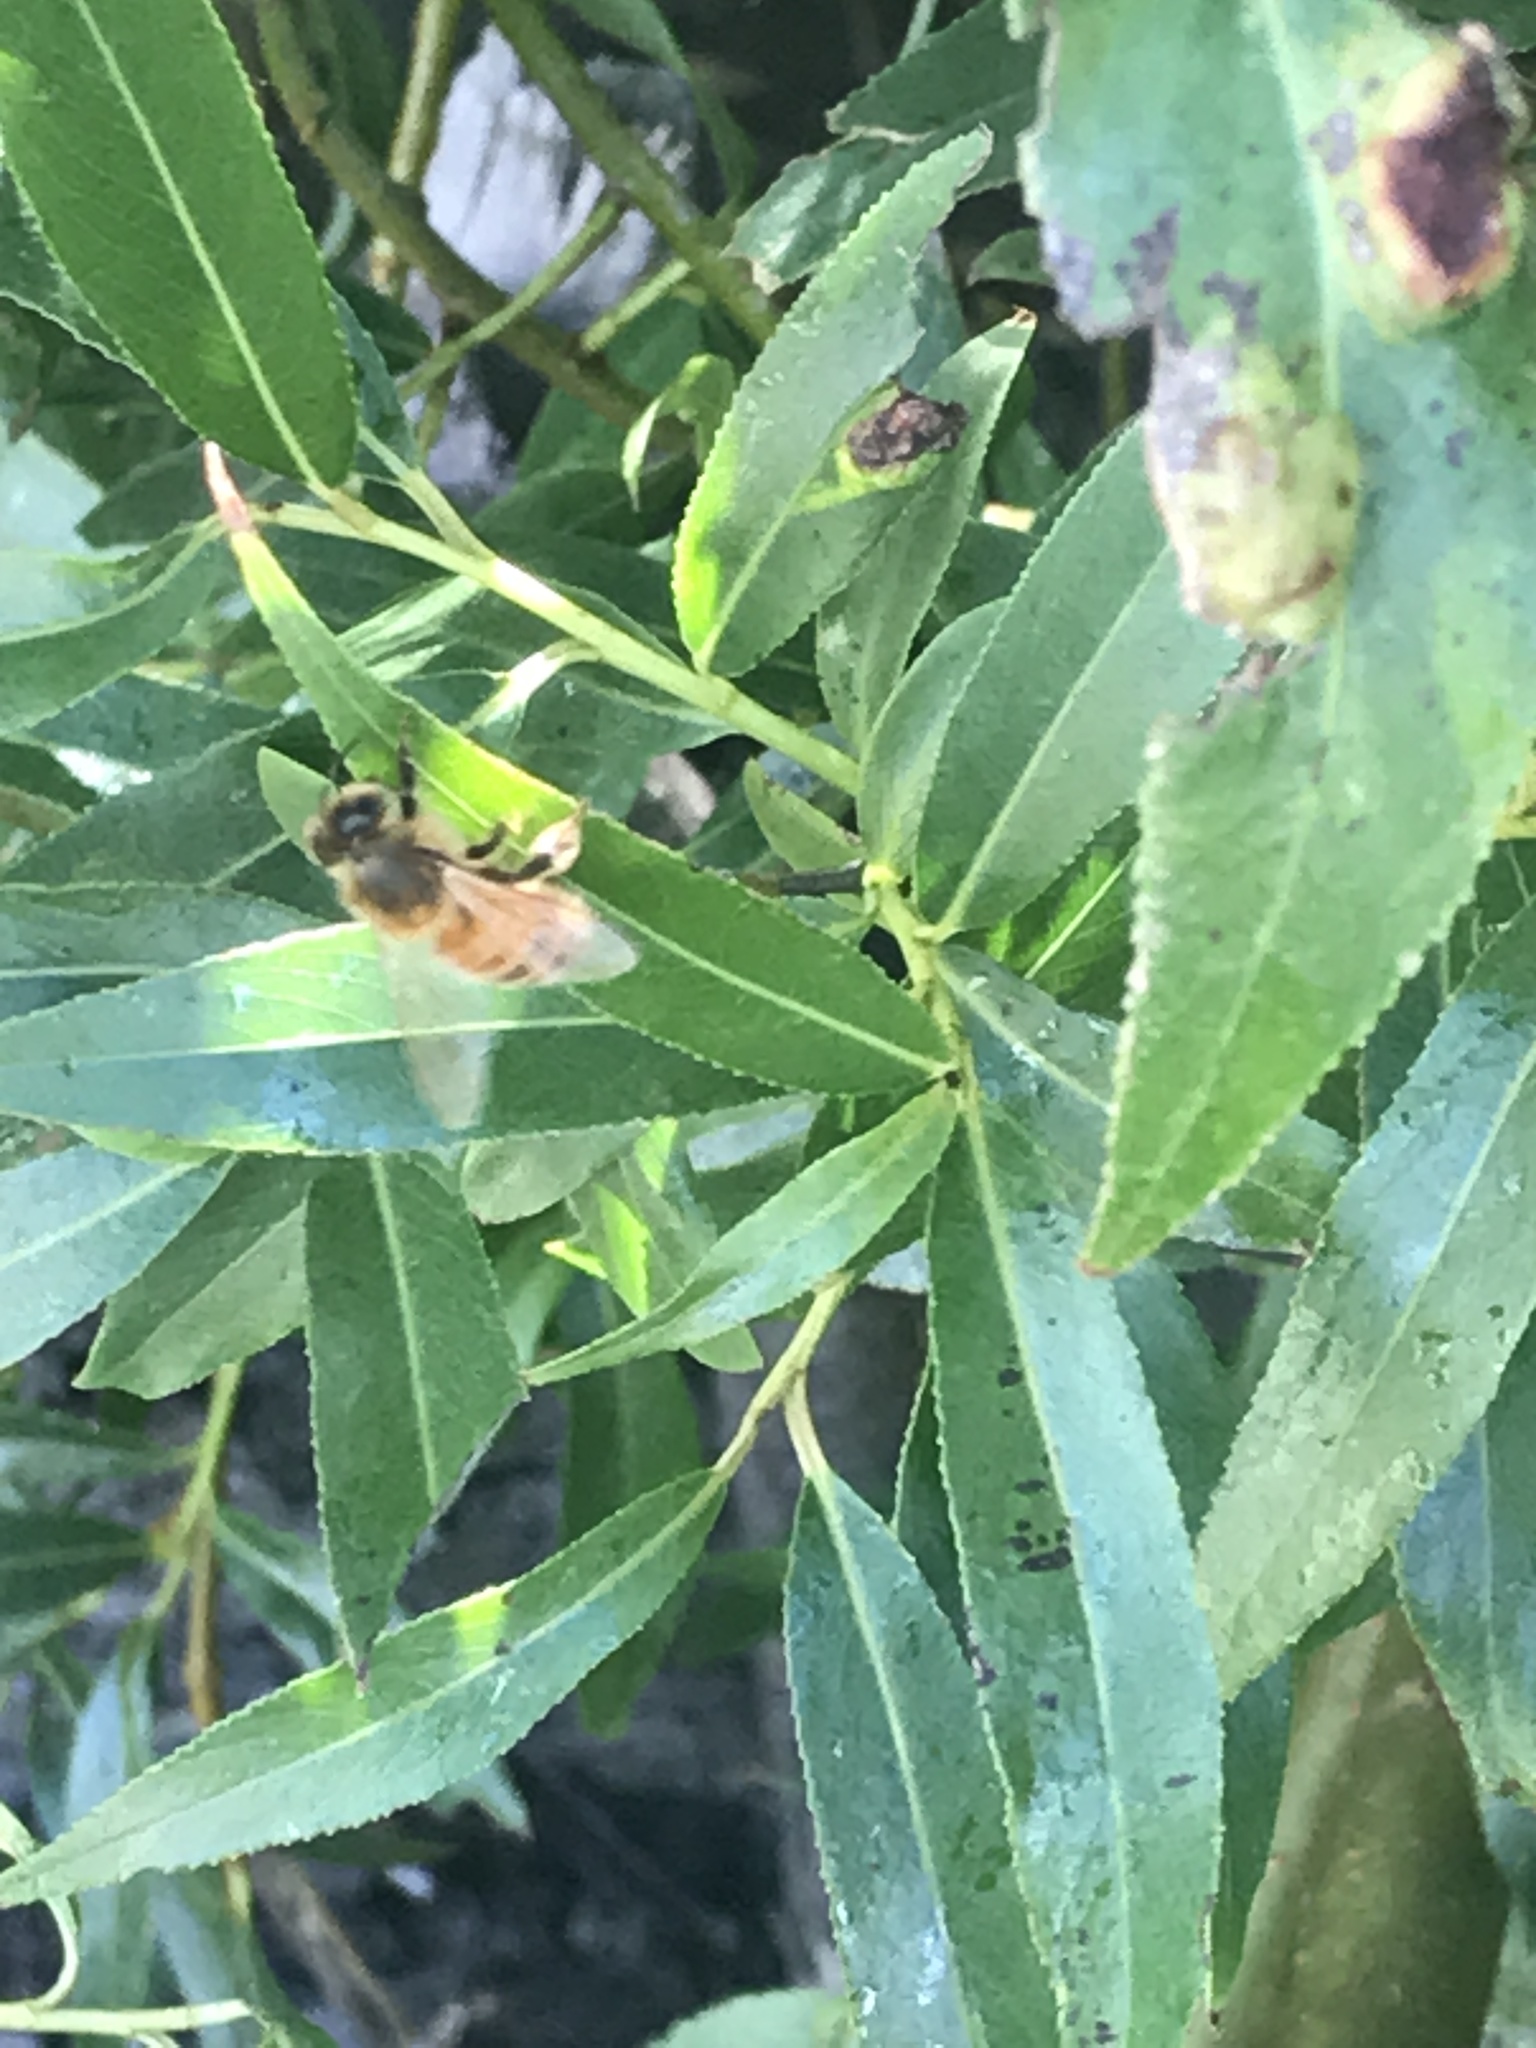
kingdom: Animalia
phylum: Arthropoda
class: Insecta
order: Hymenoptera
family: Apidae
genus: Apis
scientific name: Apis mellifera
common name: Honey bee
